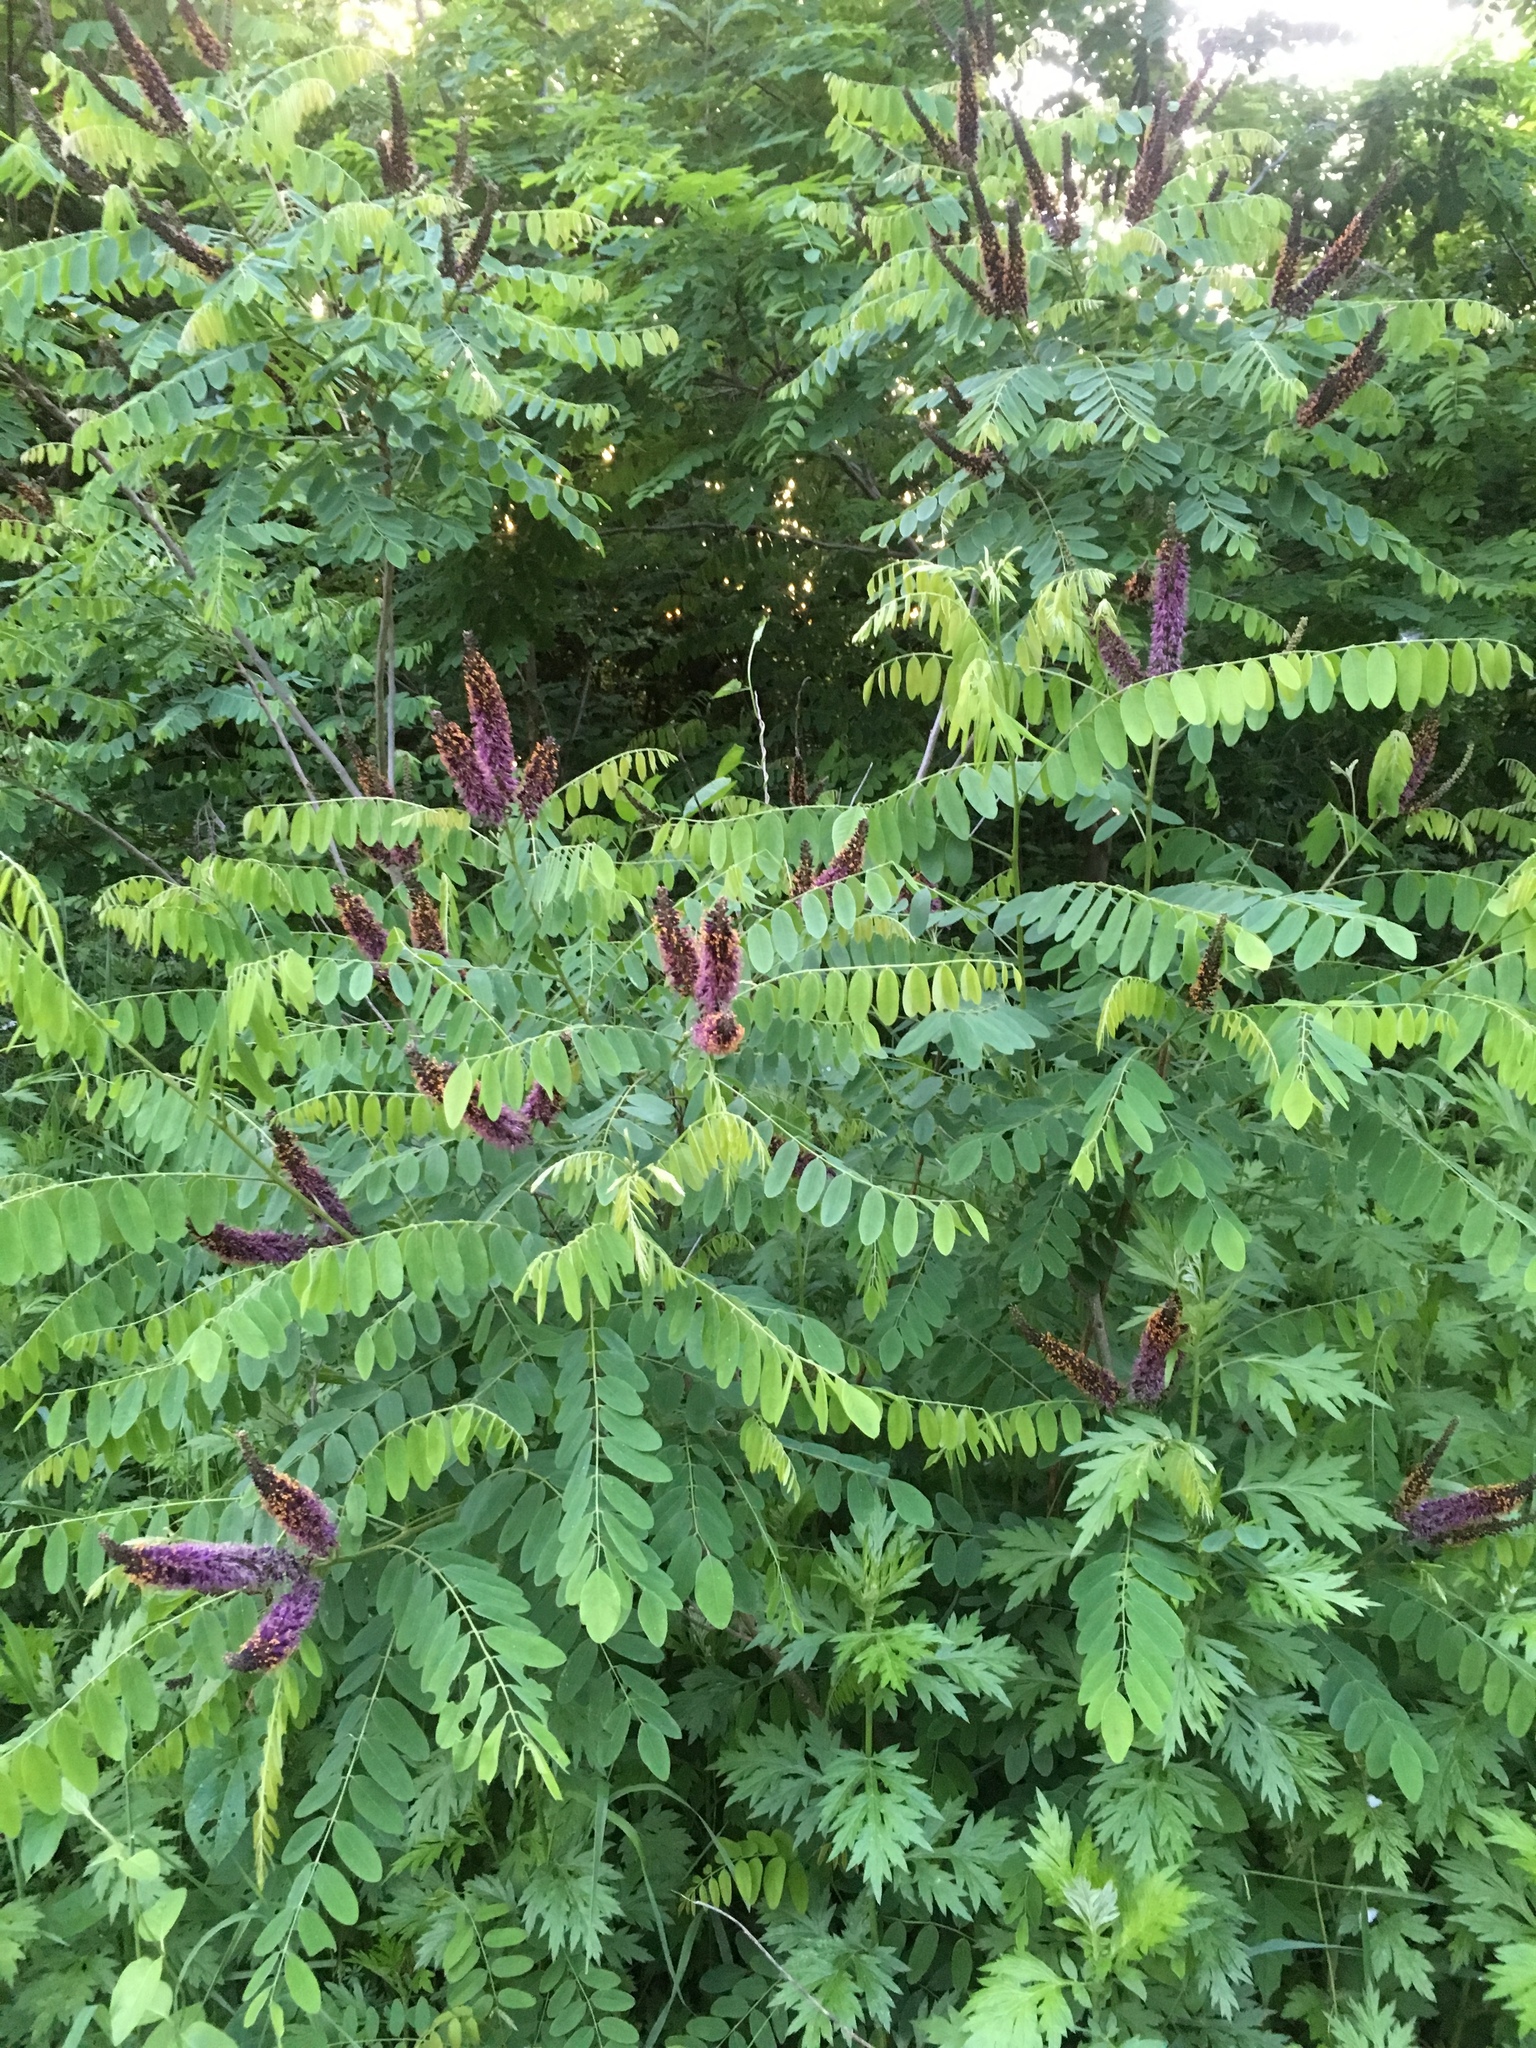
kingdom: Plantae
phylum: Tracheophyta
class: Magnoliopsida
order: Fabales
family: Fabaceae
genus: Amorpha
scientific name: Amorpha fruticosa
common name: False indigo
